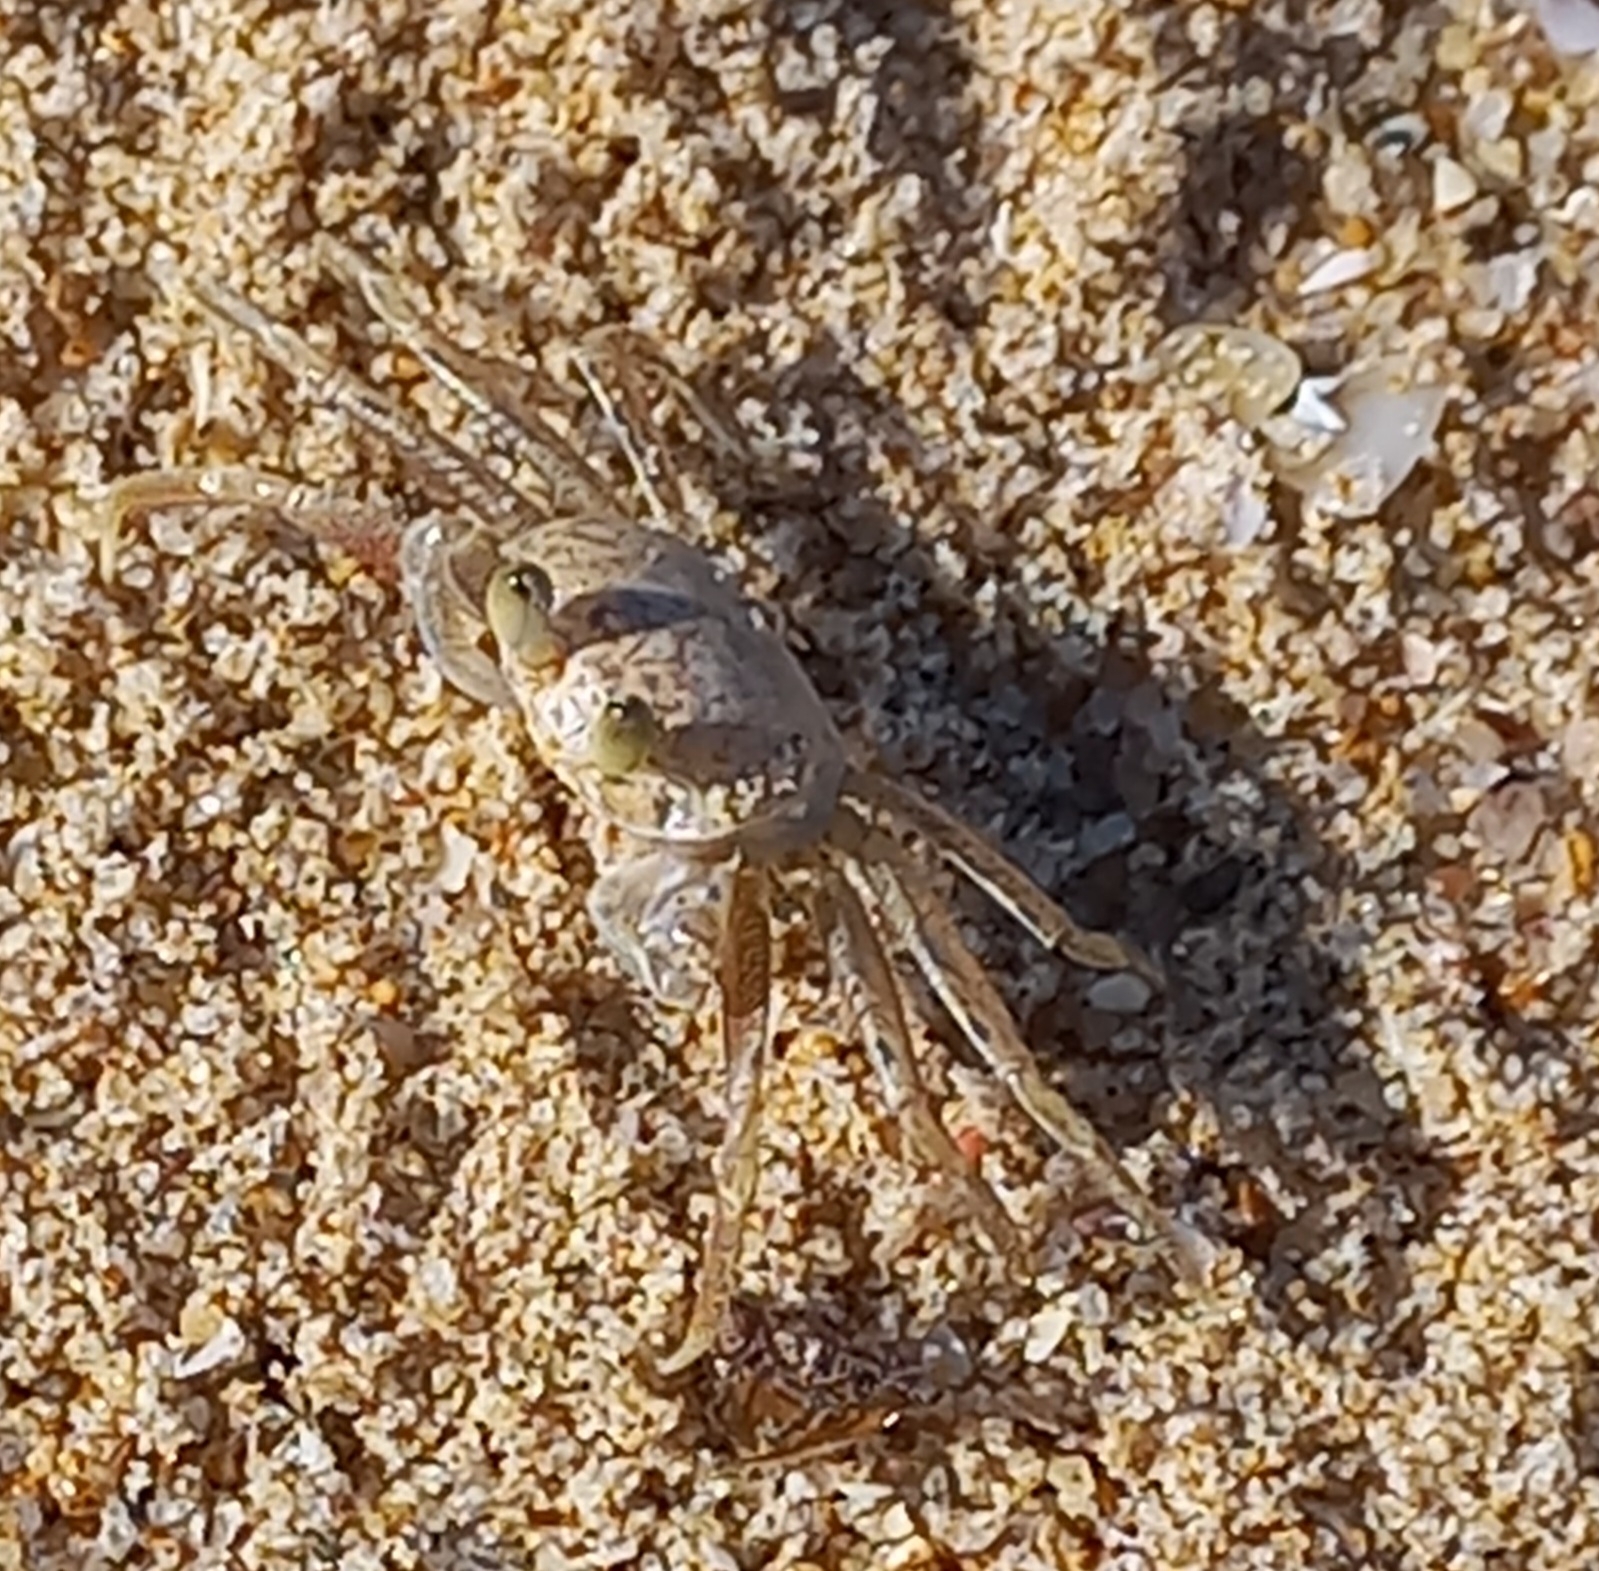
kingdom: Animalia
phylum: Arthropoda
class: Malacostraca
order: Decapoda
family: Ocypodidae
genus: Ocypode
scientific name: Ocypode
